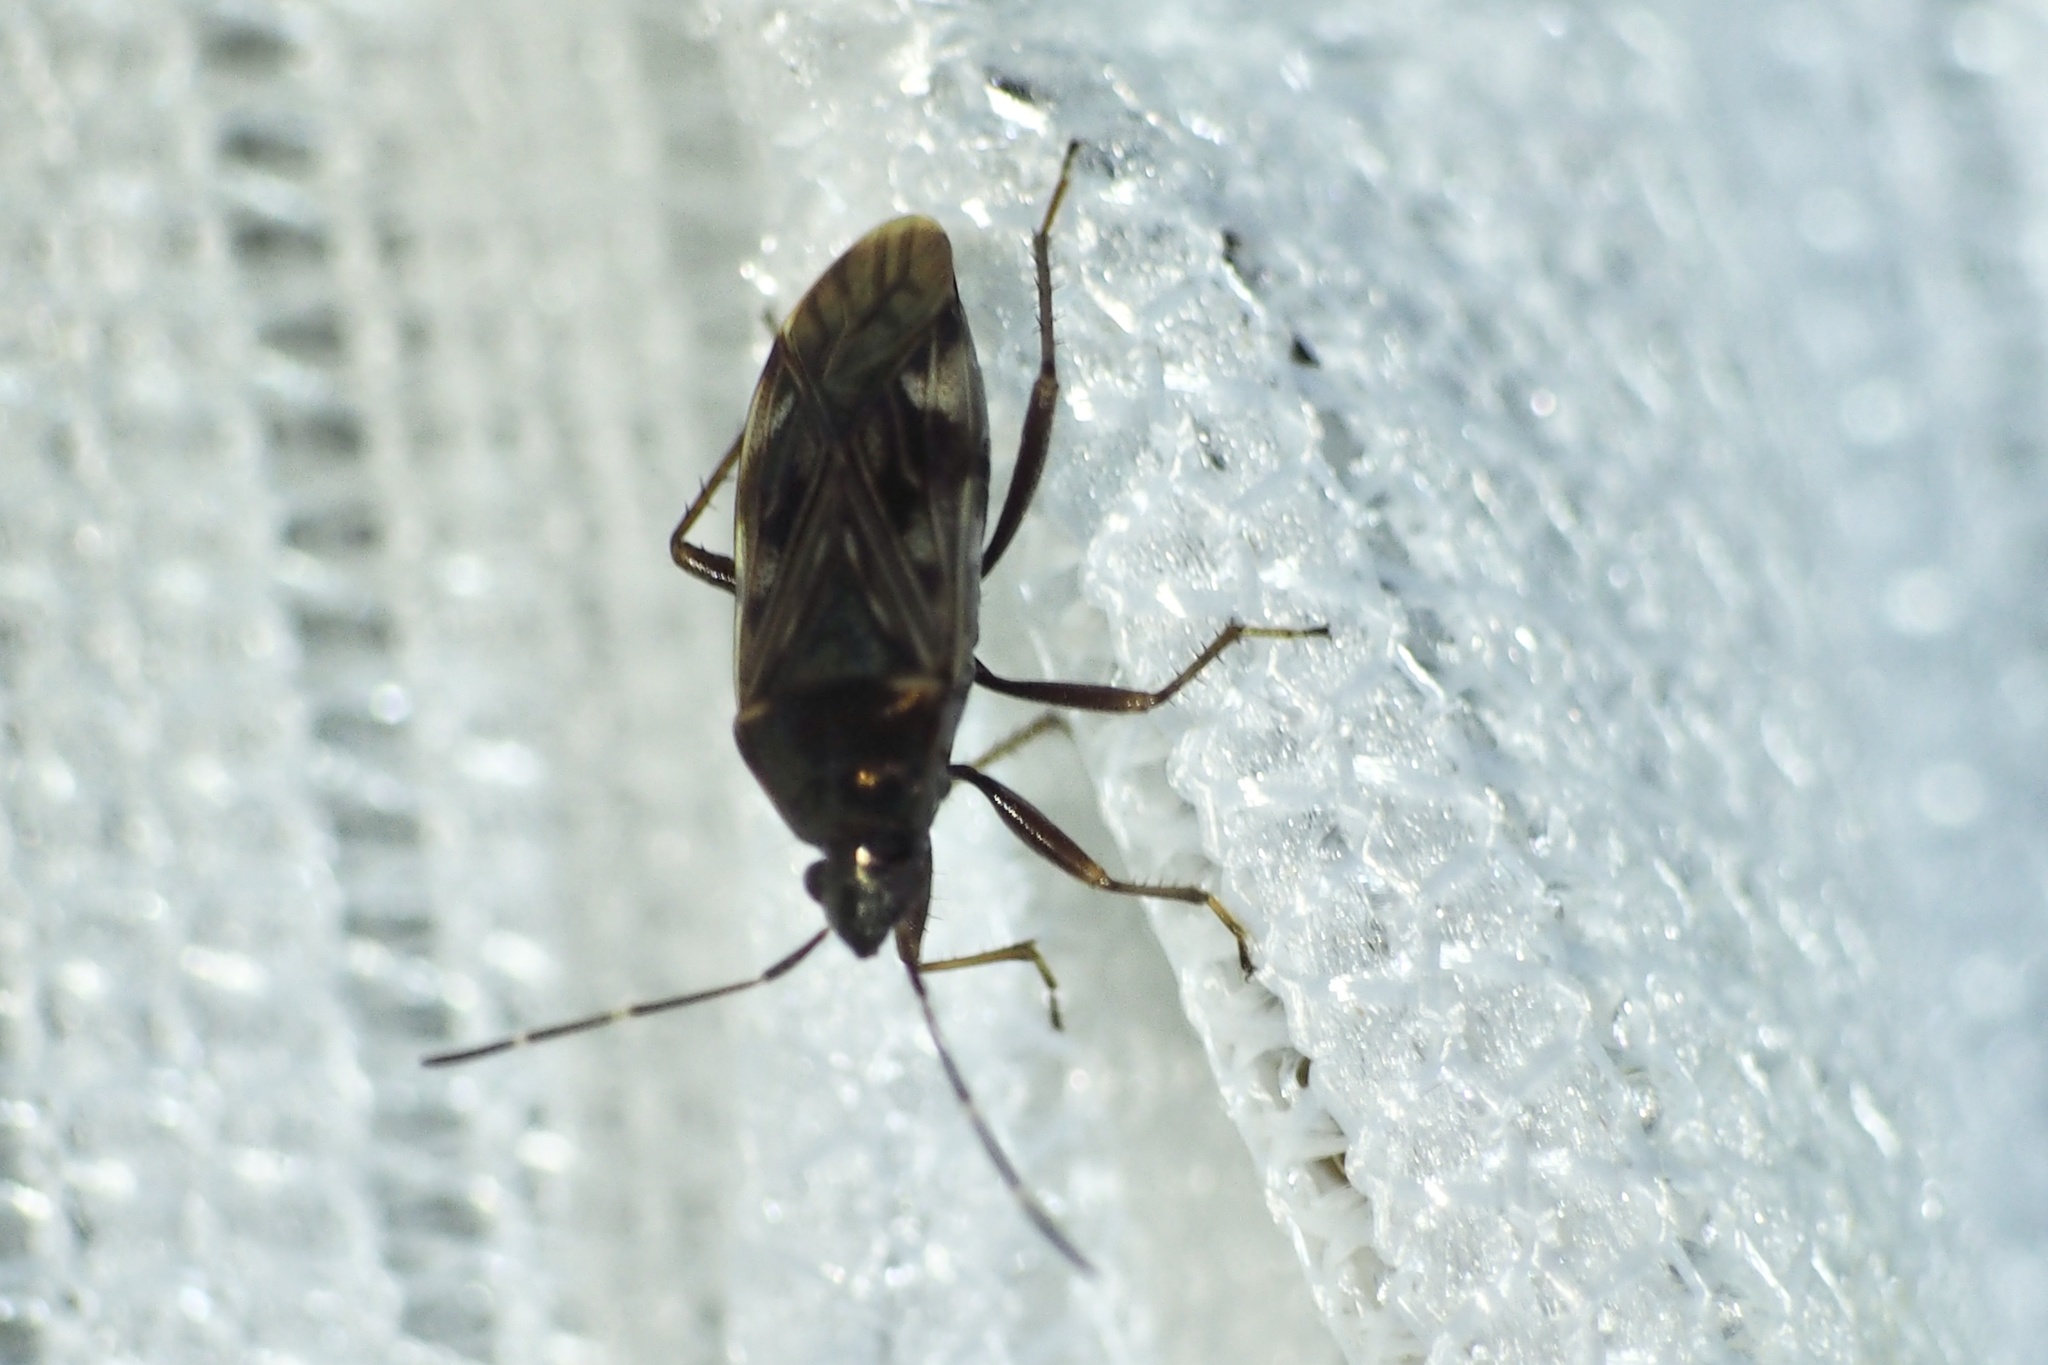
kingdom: Animalia
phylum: Arthropoda
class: Insecta
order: Hemiptera
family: Rhyparochromidae
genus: Neolethaeus
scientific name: Neolethaeus dallasi
